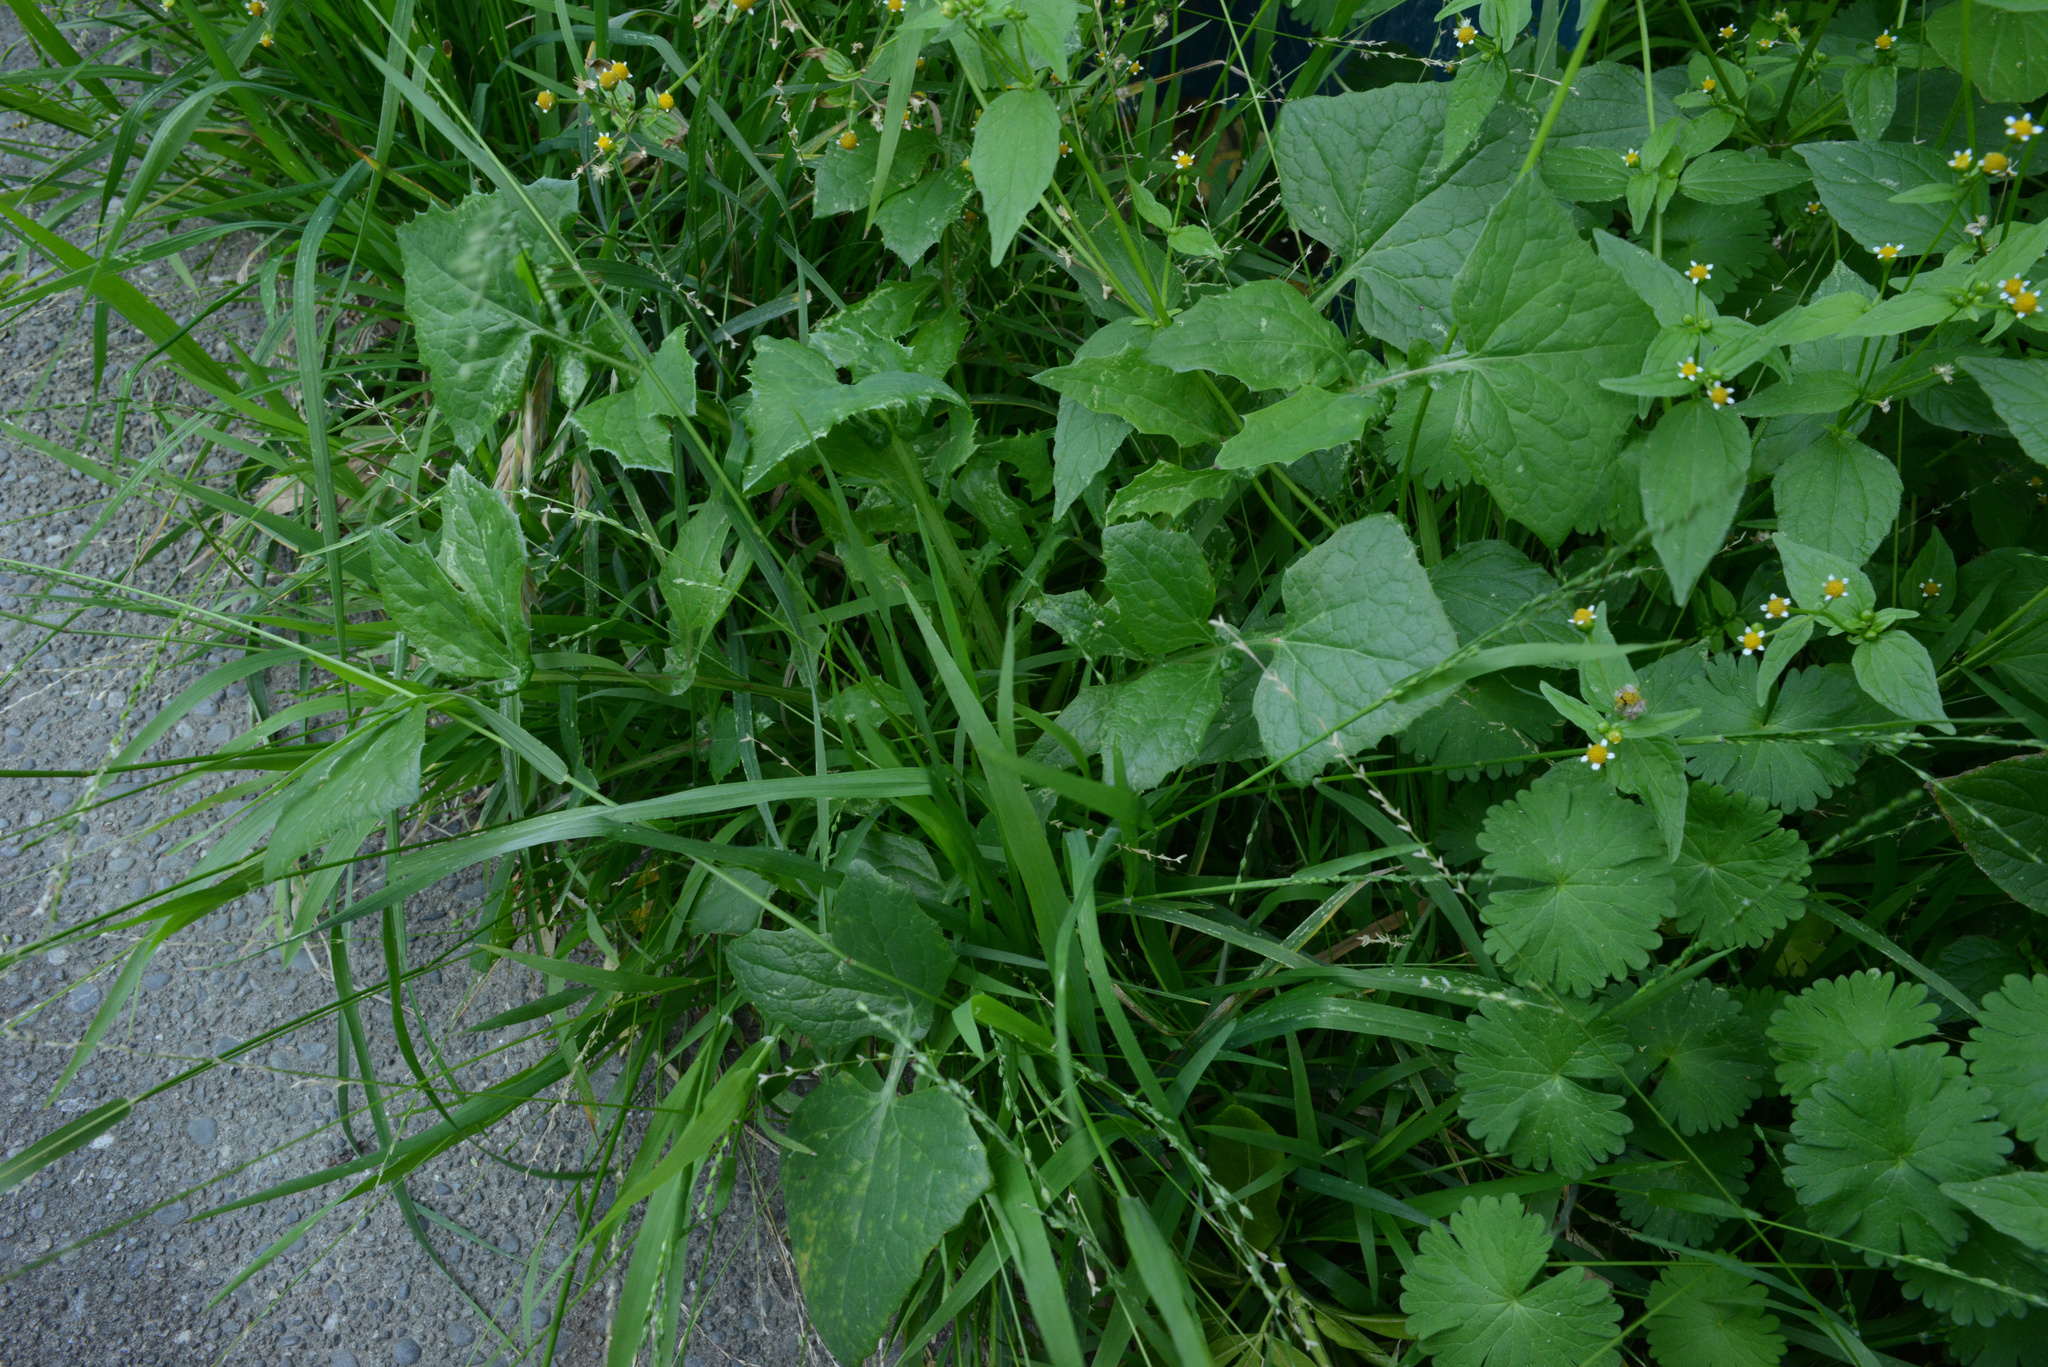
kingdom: Plantae
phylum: Tracheophyta
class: Magnoliopsida
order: Asterales
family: Asteraceae
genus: Sonchus
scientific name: Sonchus oleraceus
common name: Common sowthistle
